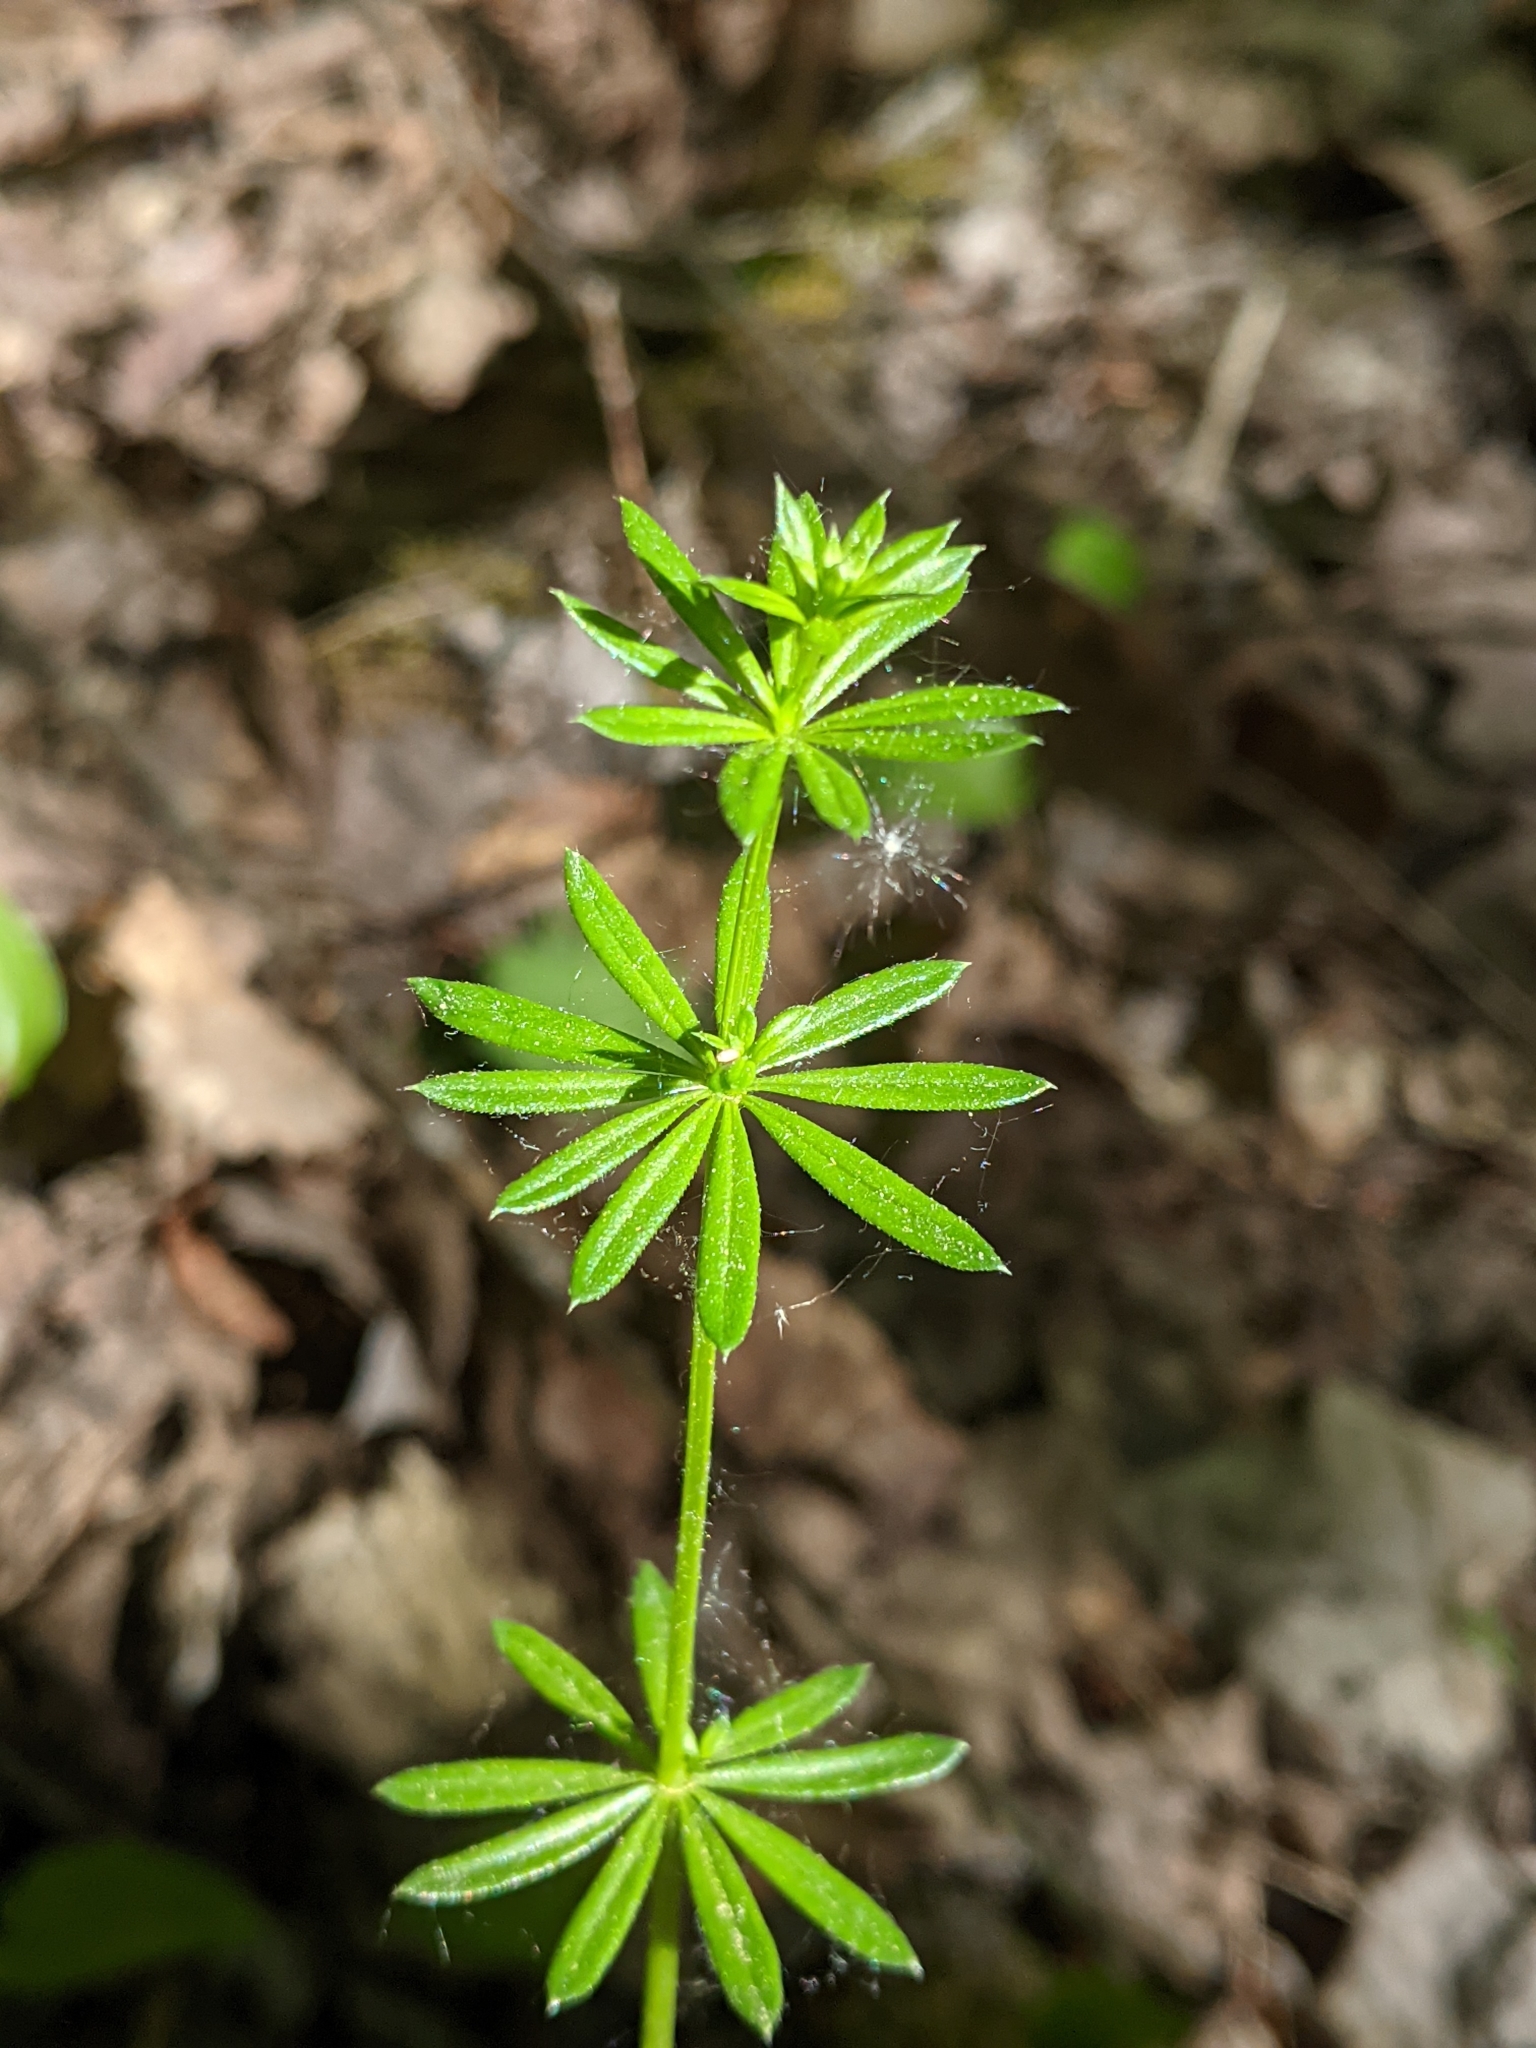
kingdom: Plantae
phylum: Tracheophyta
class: Magnoliopsida
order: Gentianales
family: Rubiaceae
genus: Galium
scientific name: Galium mollugo
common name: Hedge bedstraw
